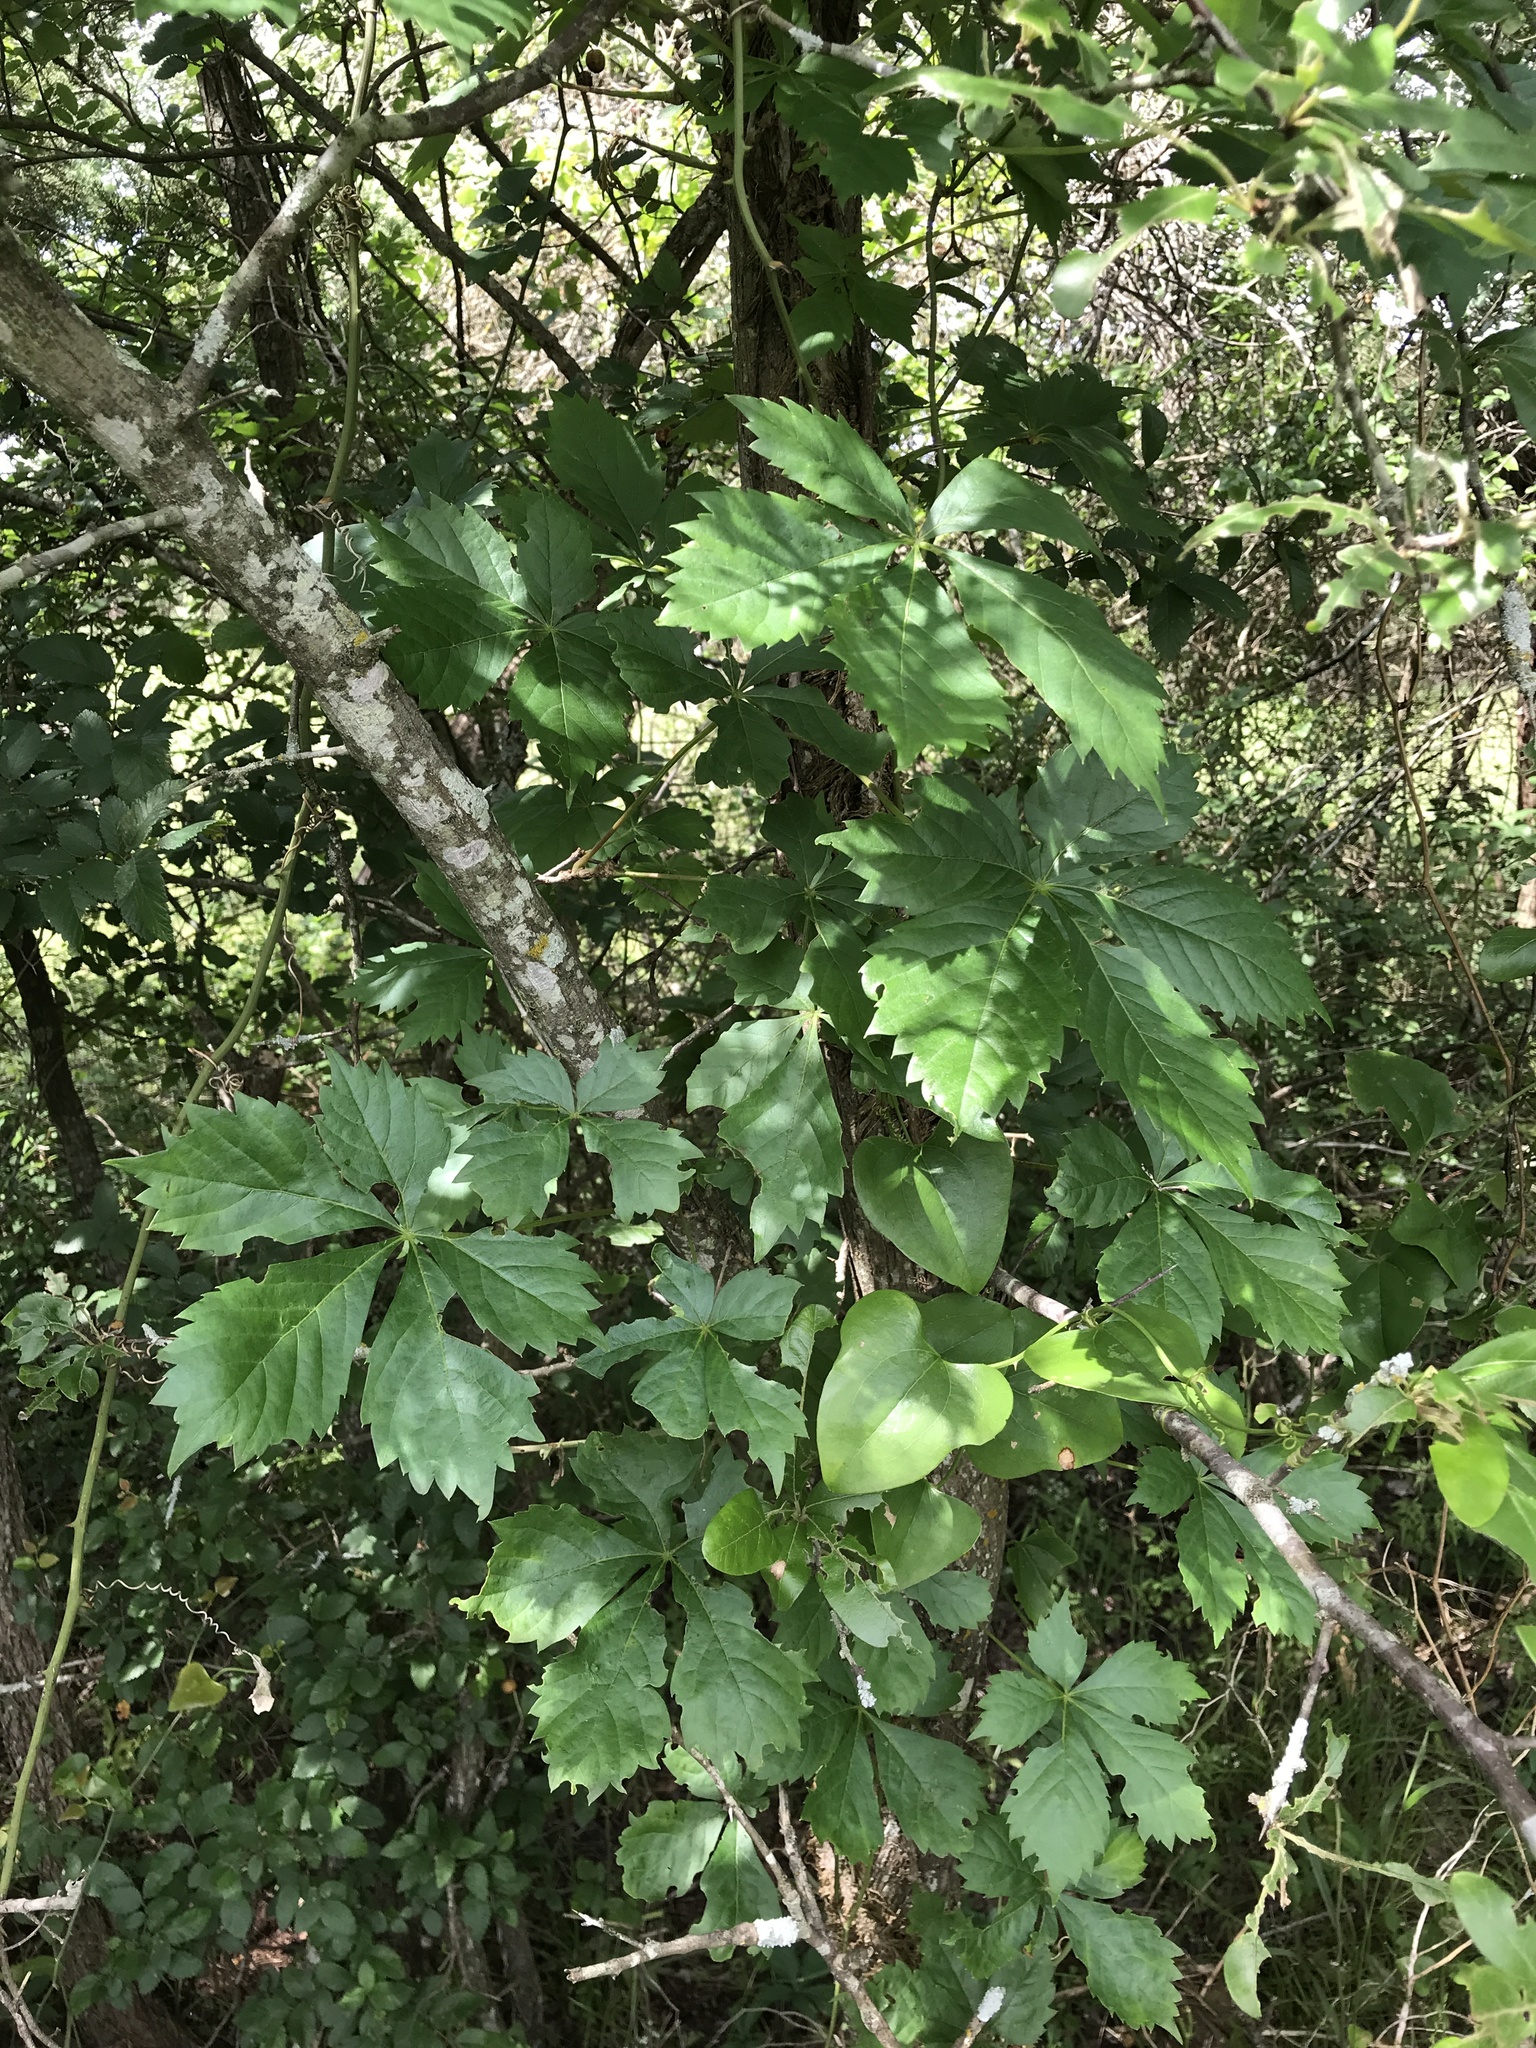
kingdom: Plantae
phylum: Tracheophyta
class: Magnoliopsida
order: Vitales
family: Vitaceae
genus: Parthenocissus
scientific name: Parthenocissus quinquefolia
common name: Virginia-creeper
